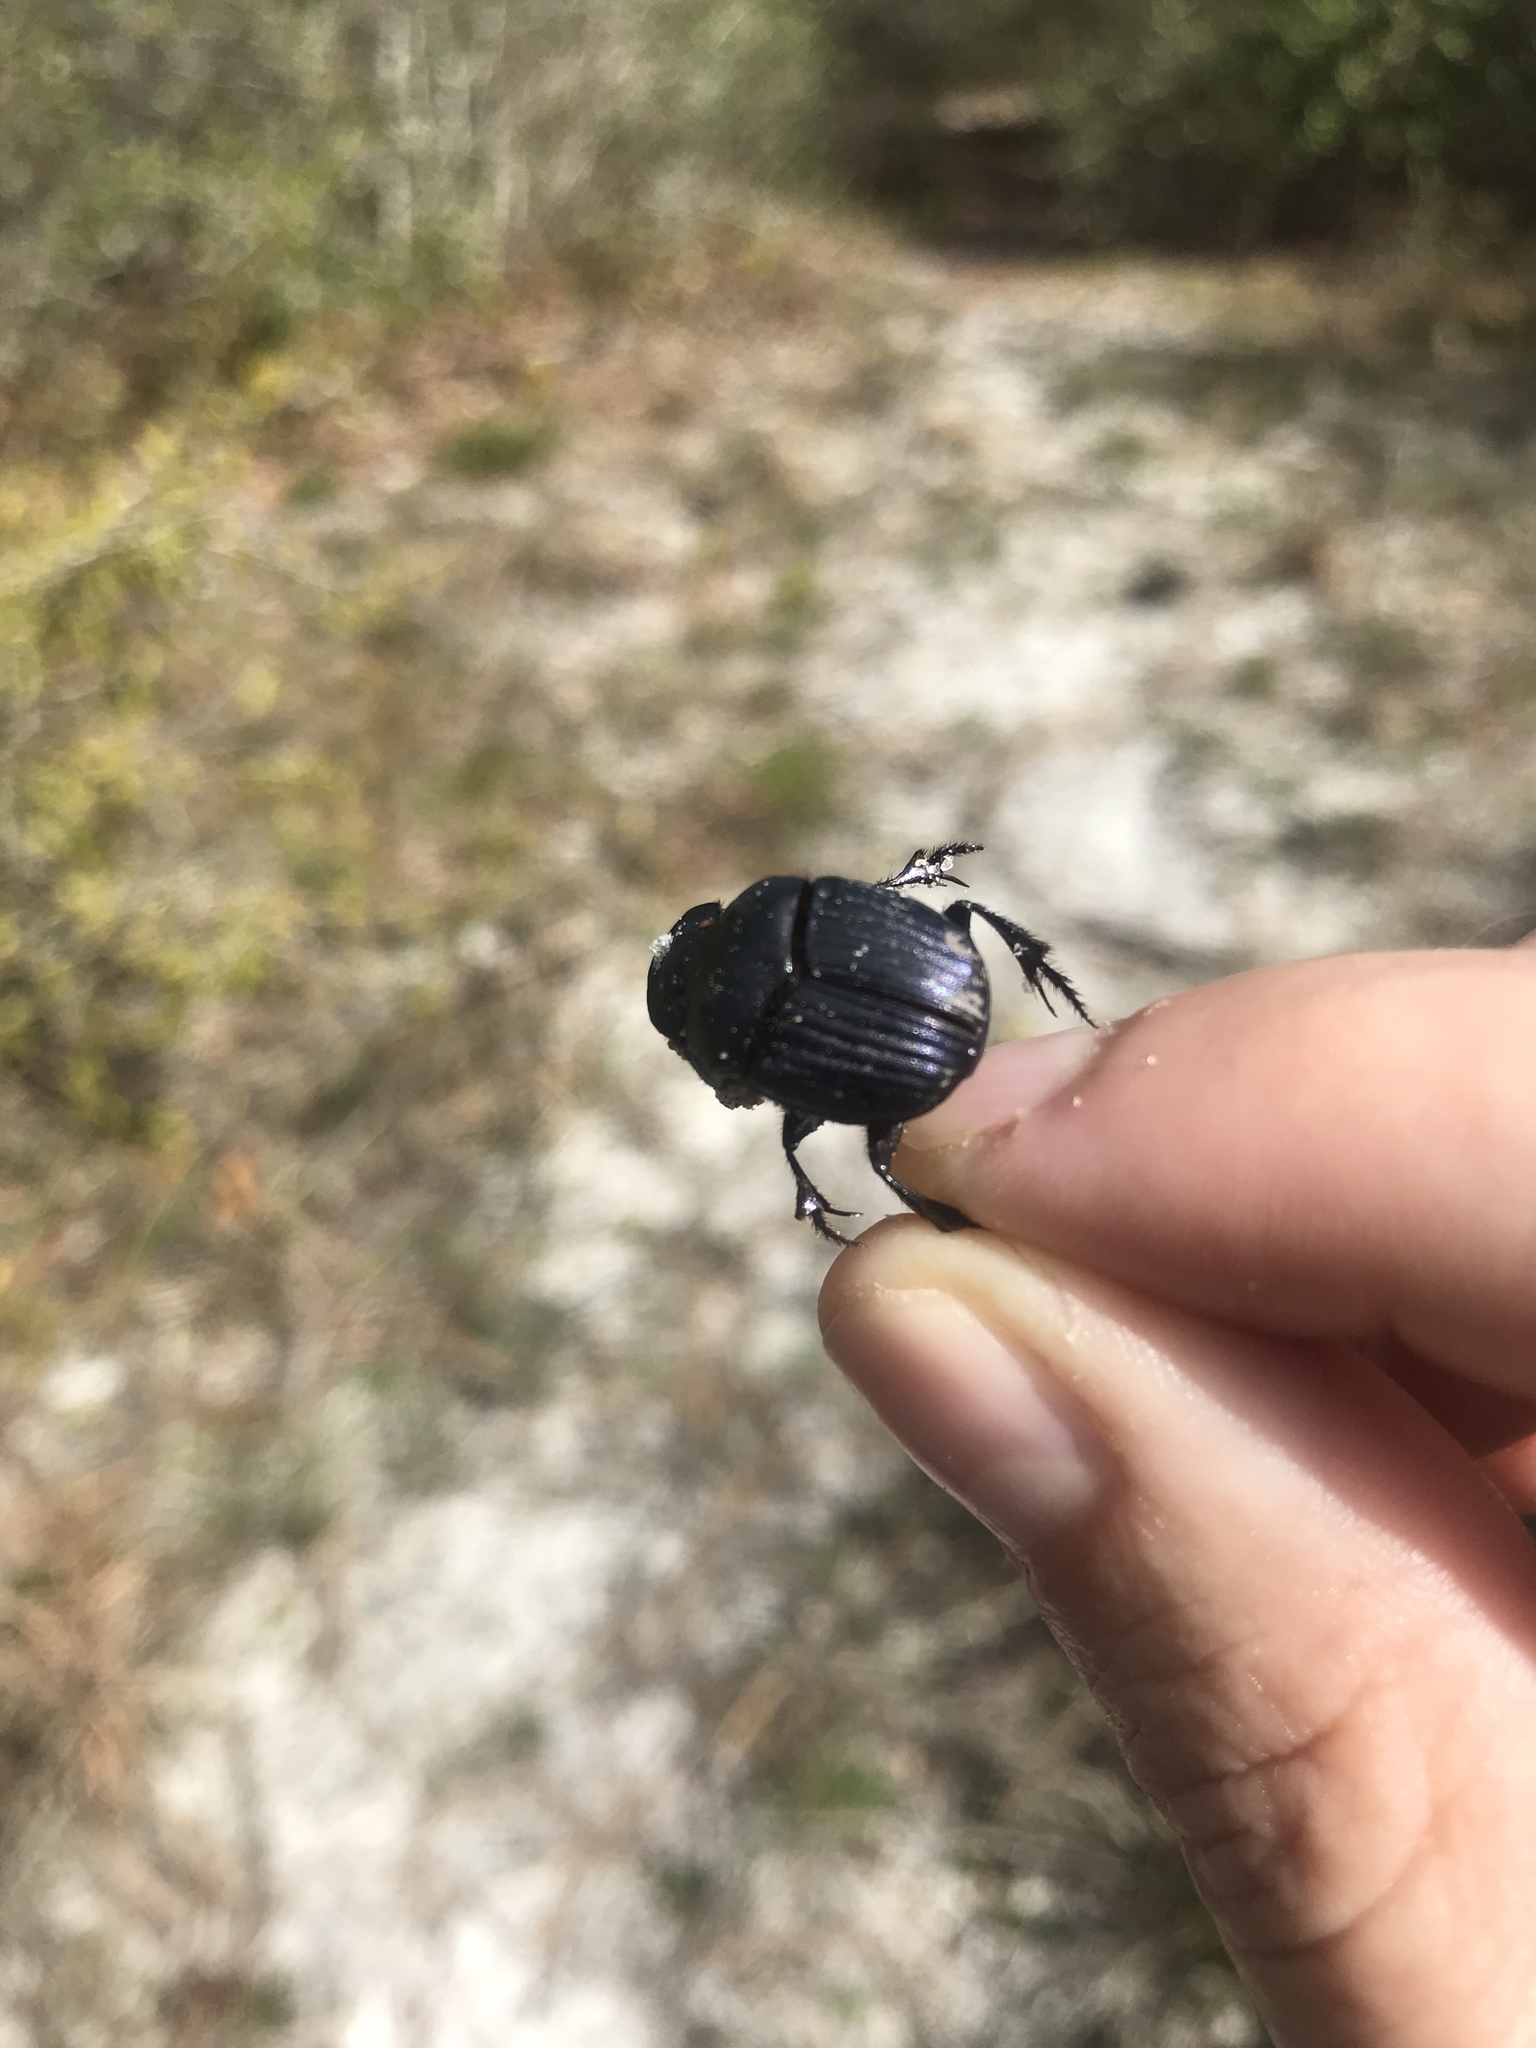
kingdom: Animalia
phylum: Arthropoda
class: Insecta
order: Coleoptera
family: Scarabaeidae
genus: Phanaeus
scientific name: Phanaeus igneus
